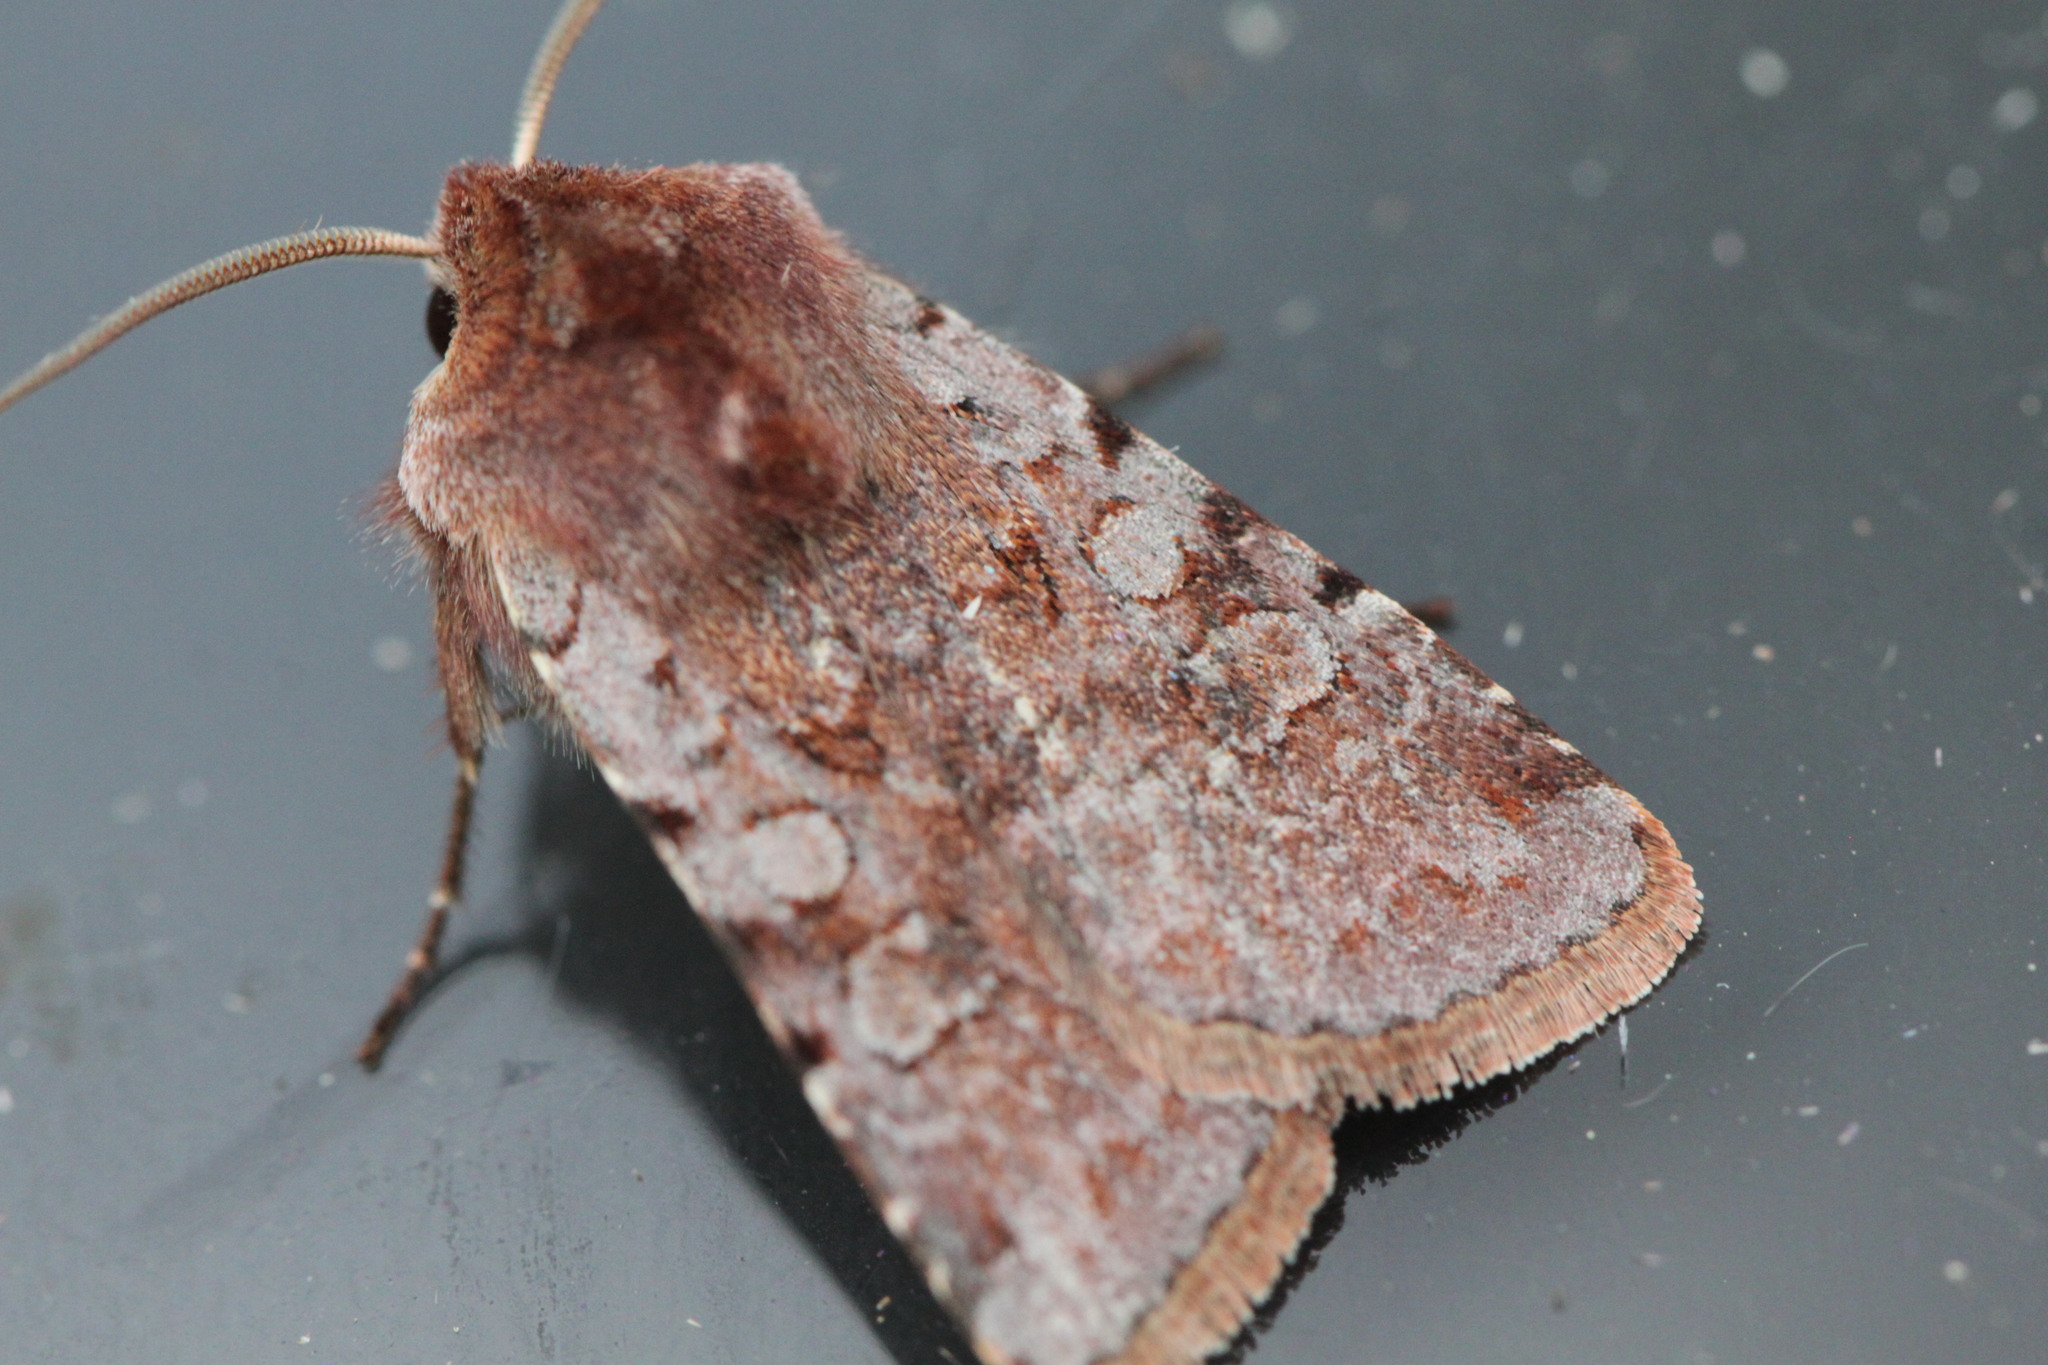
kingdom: Animalia
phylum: Arthropoda
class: Insecta
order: Lepidoptera
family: Noctuidae
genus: Cerastis
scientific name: Cerastis rubricosa
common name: Red chestnut
